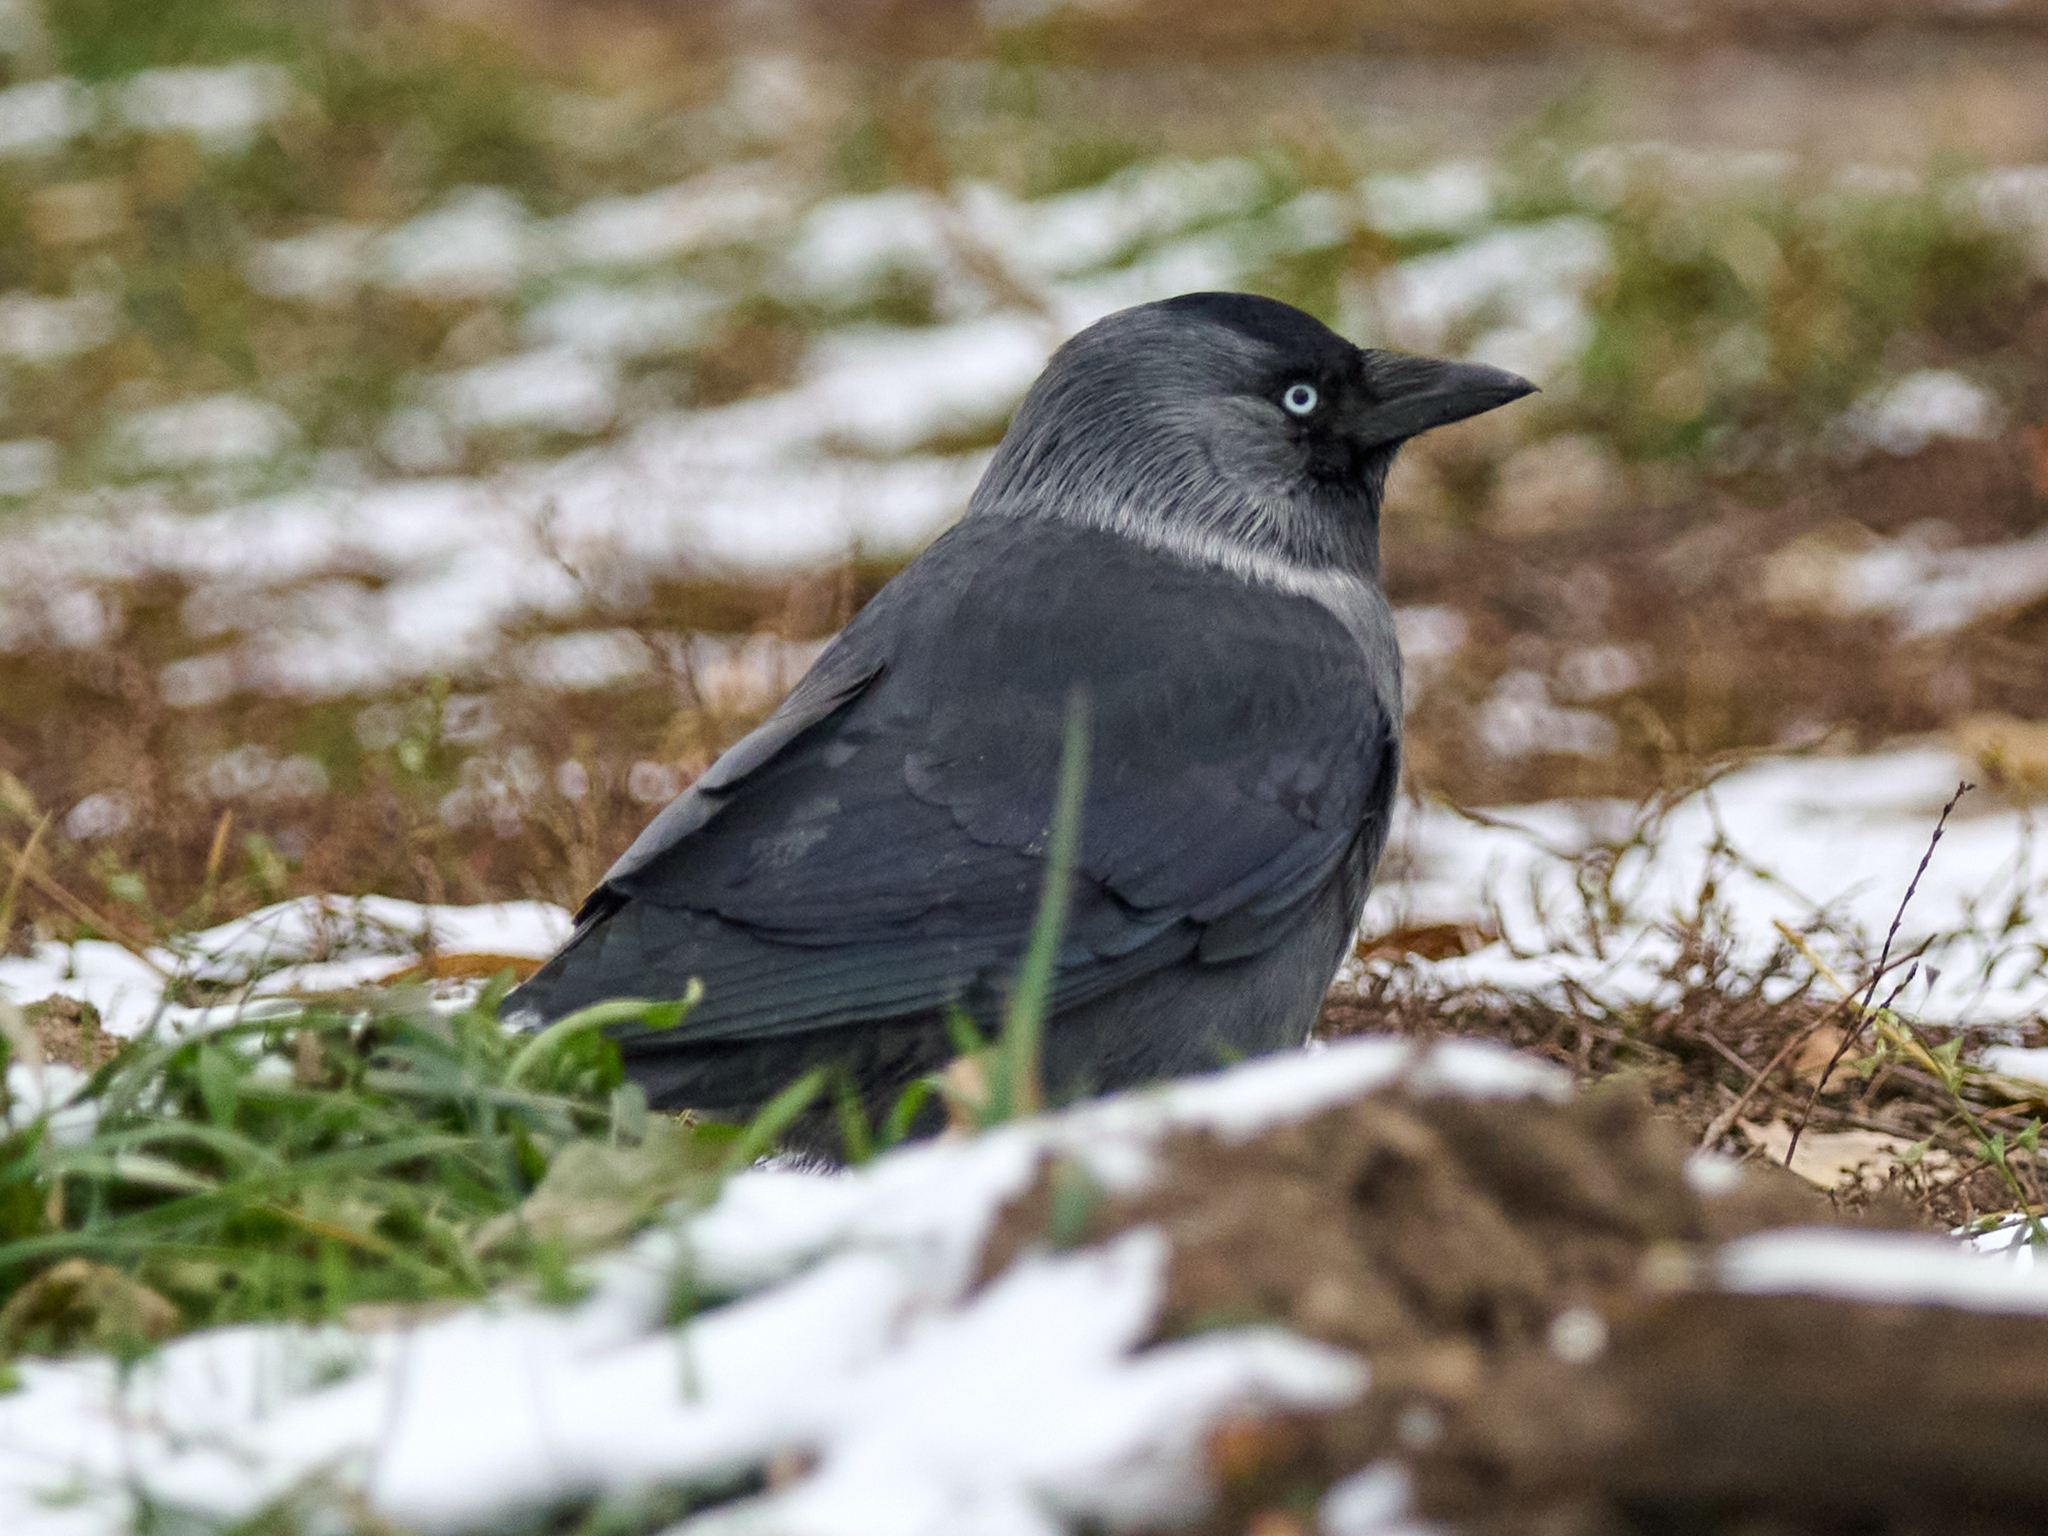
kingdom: Animalia
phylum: Chordata
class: Aves
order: Passeriformes
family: Corvidae
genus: Coloeus
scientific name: Coloeus monedula
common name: Western jackdaw
